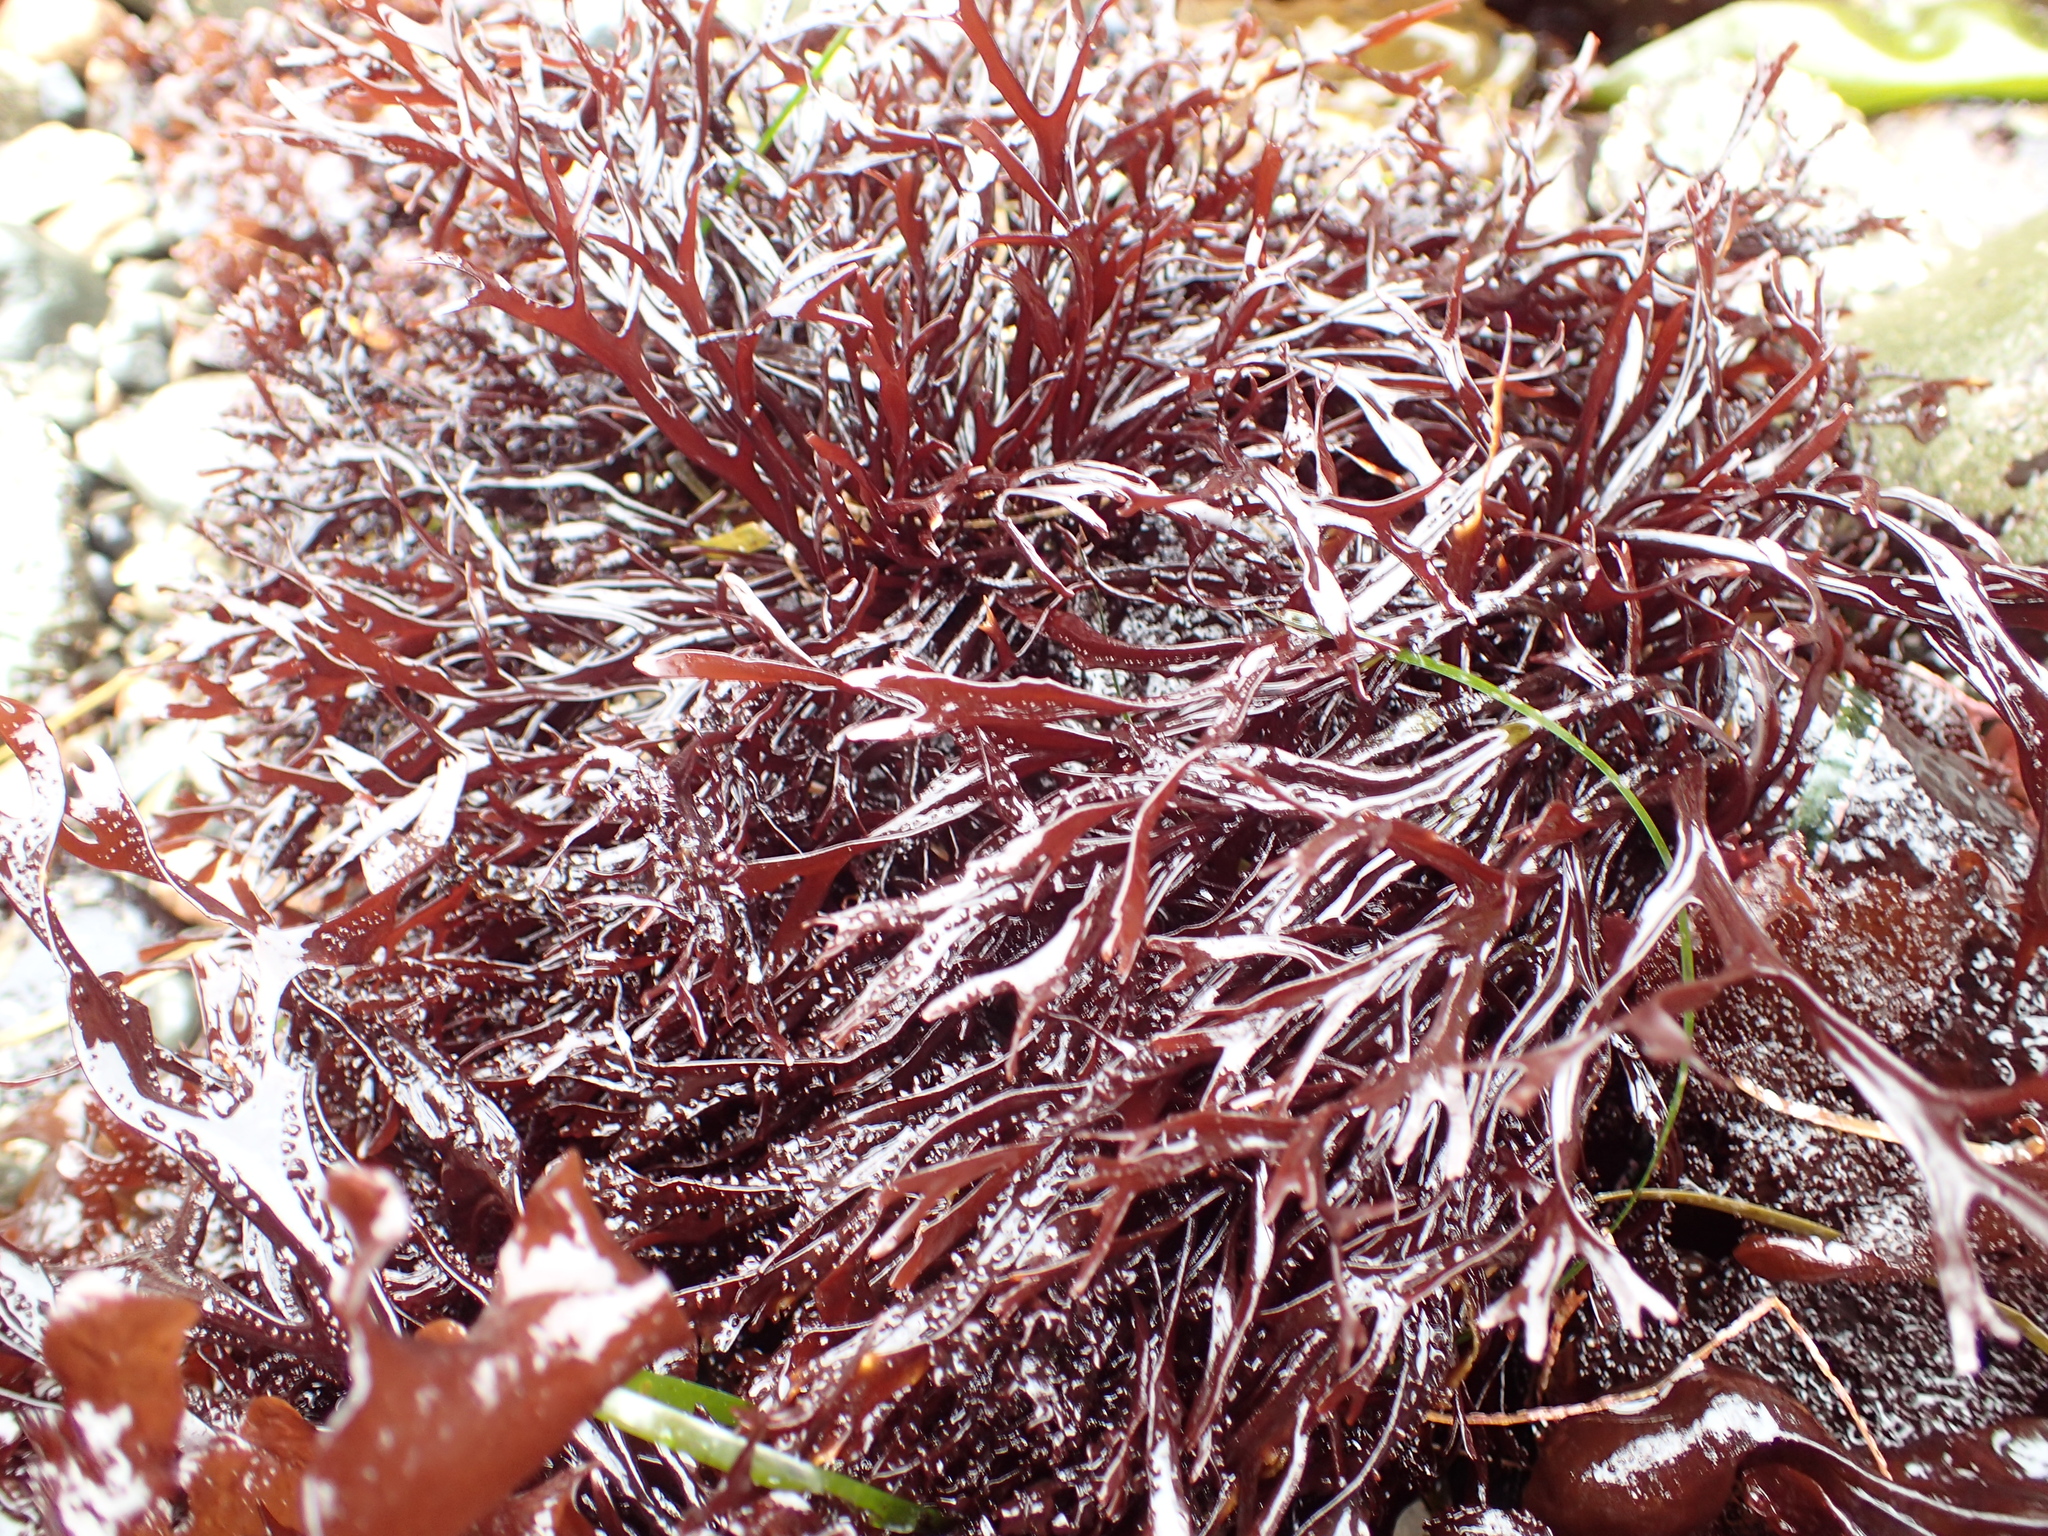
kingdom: Plantae
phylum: Rhodophyta
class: Florideophyceae
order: Gigartinales
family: Phyllophoraceae
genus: Mastocarpus
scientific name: Mastocarpus jardinii
